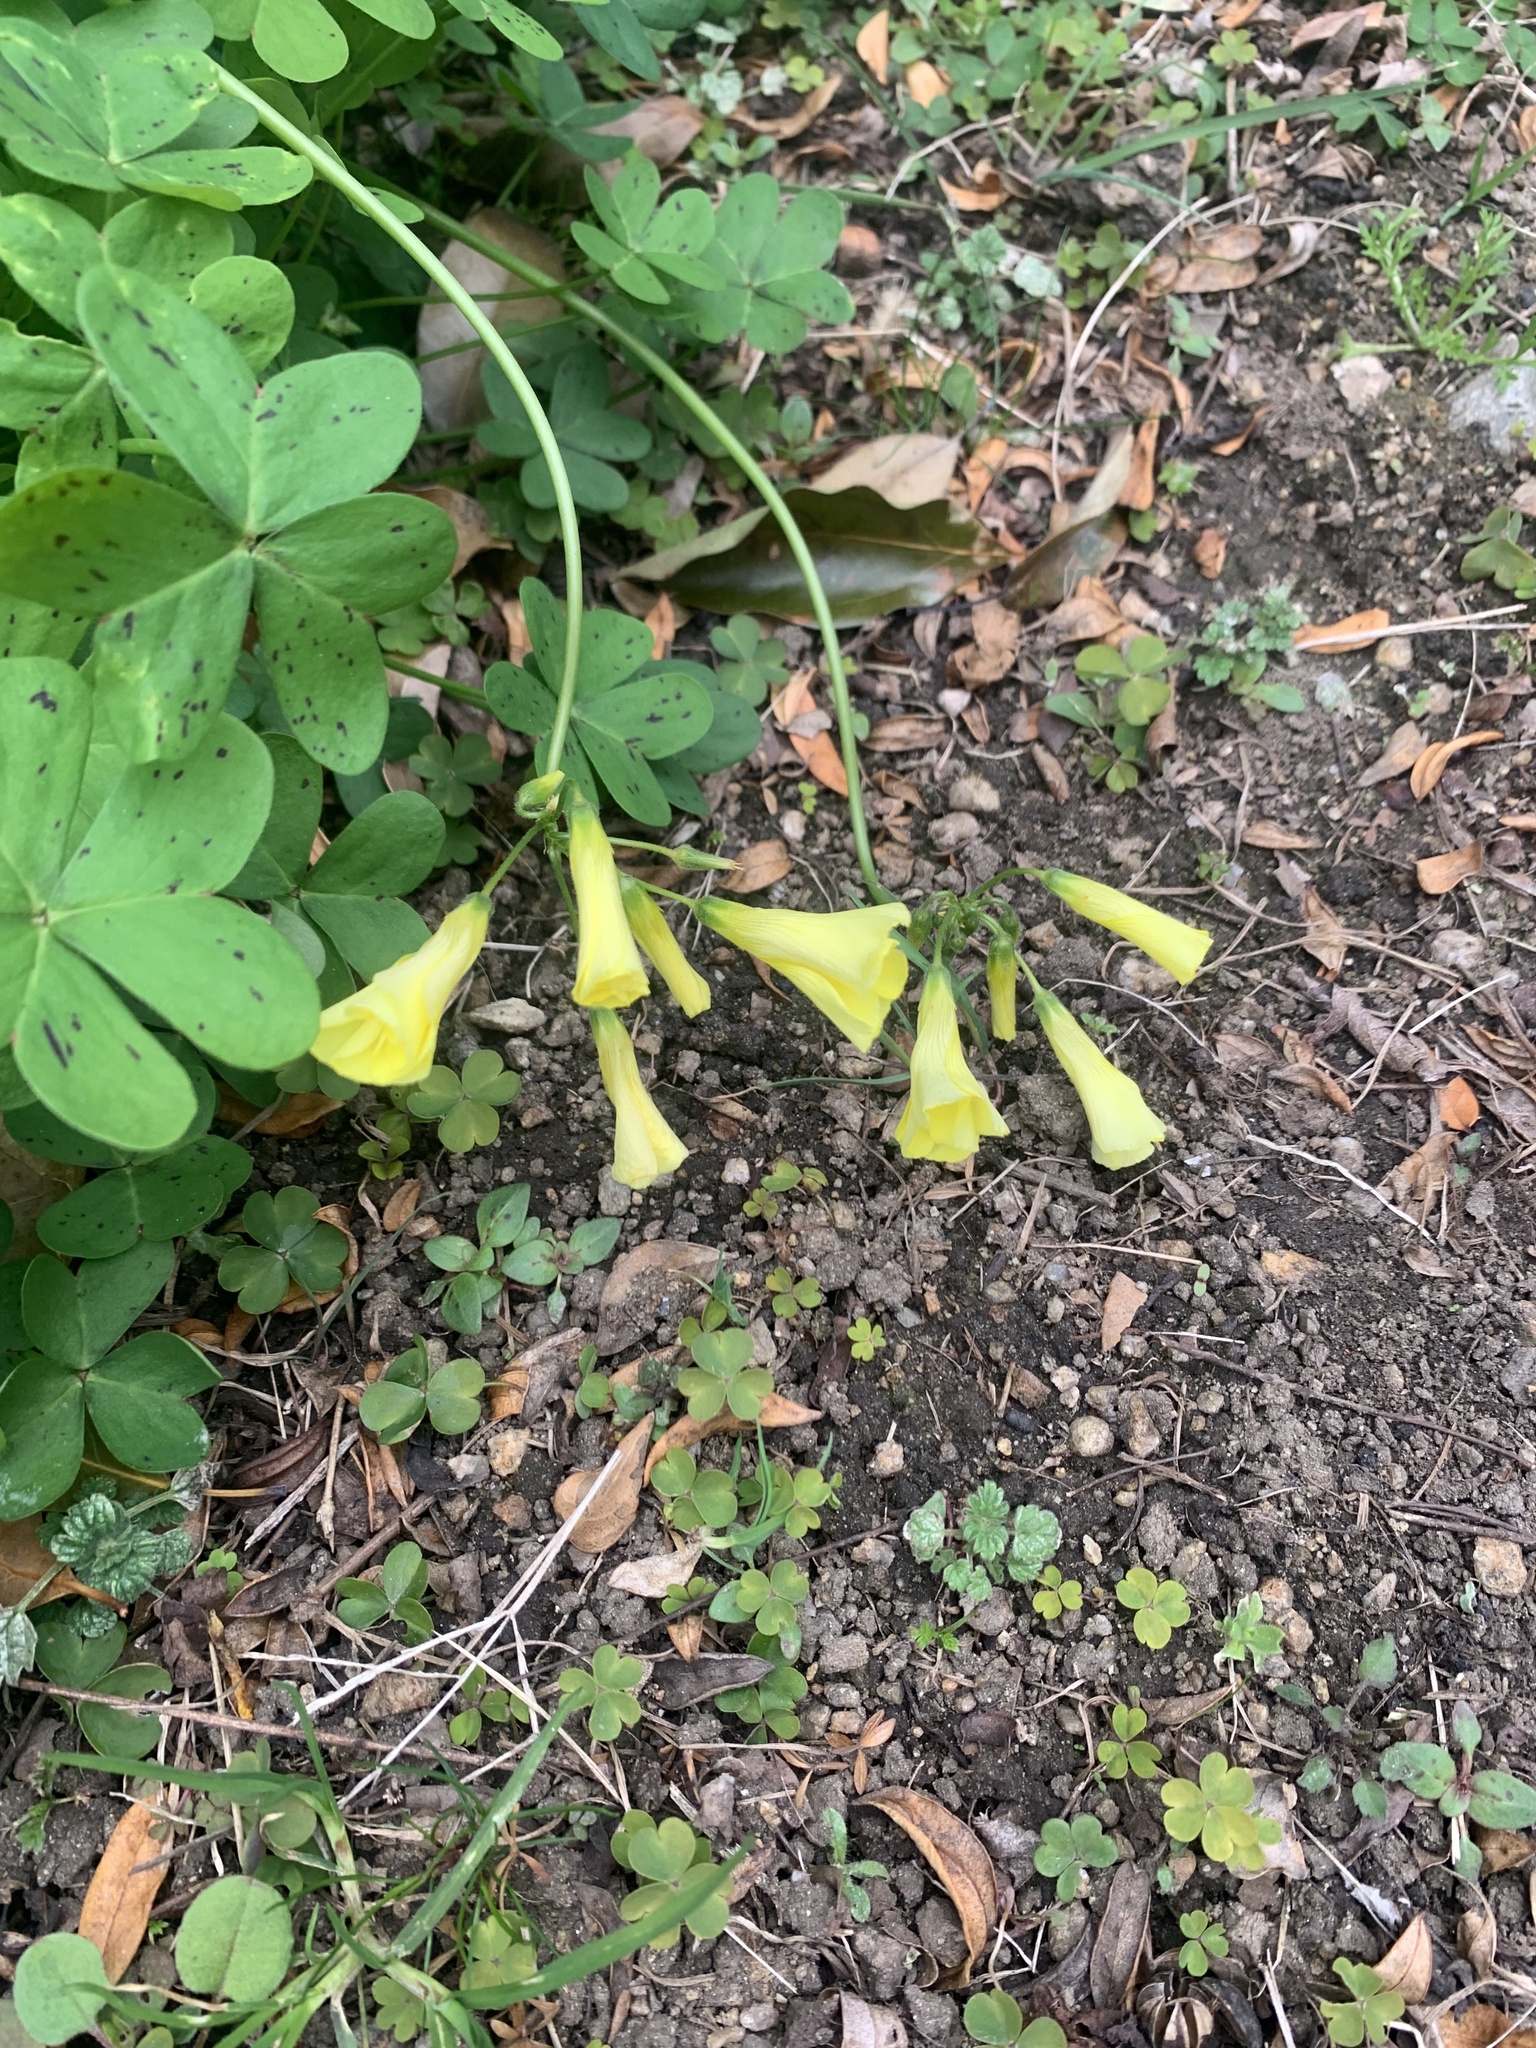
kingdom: Plantae
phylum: Tracheophyta
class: Magnoliopsida
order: Oxalidales
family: Oxalidaceae
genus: Oxalis
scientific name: Oxalis pes-caprae
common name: Bermuda-buttercup
